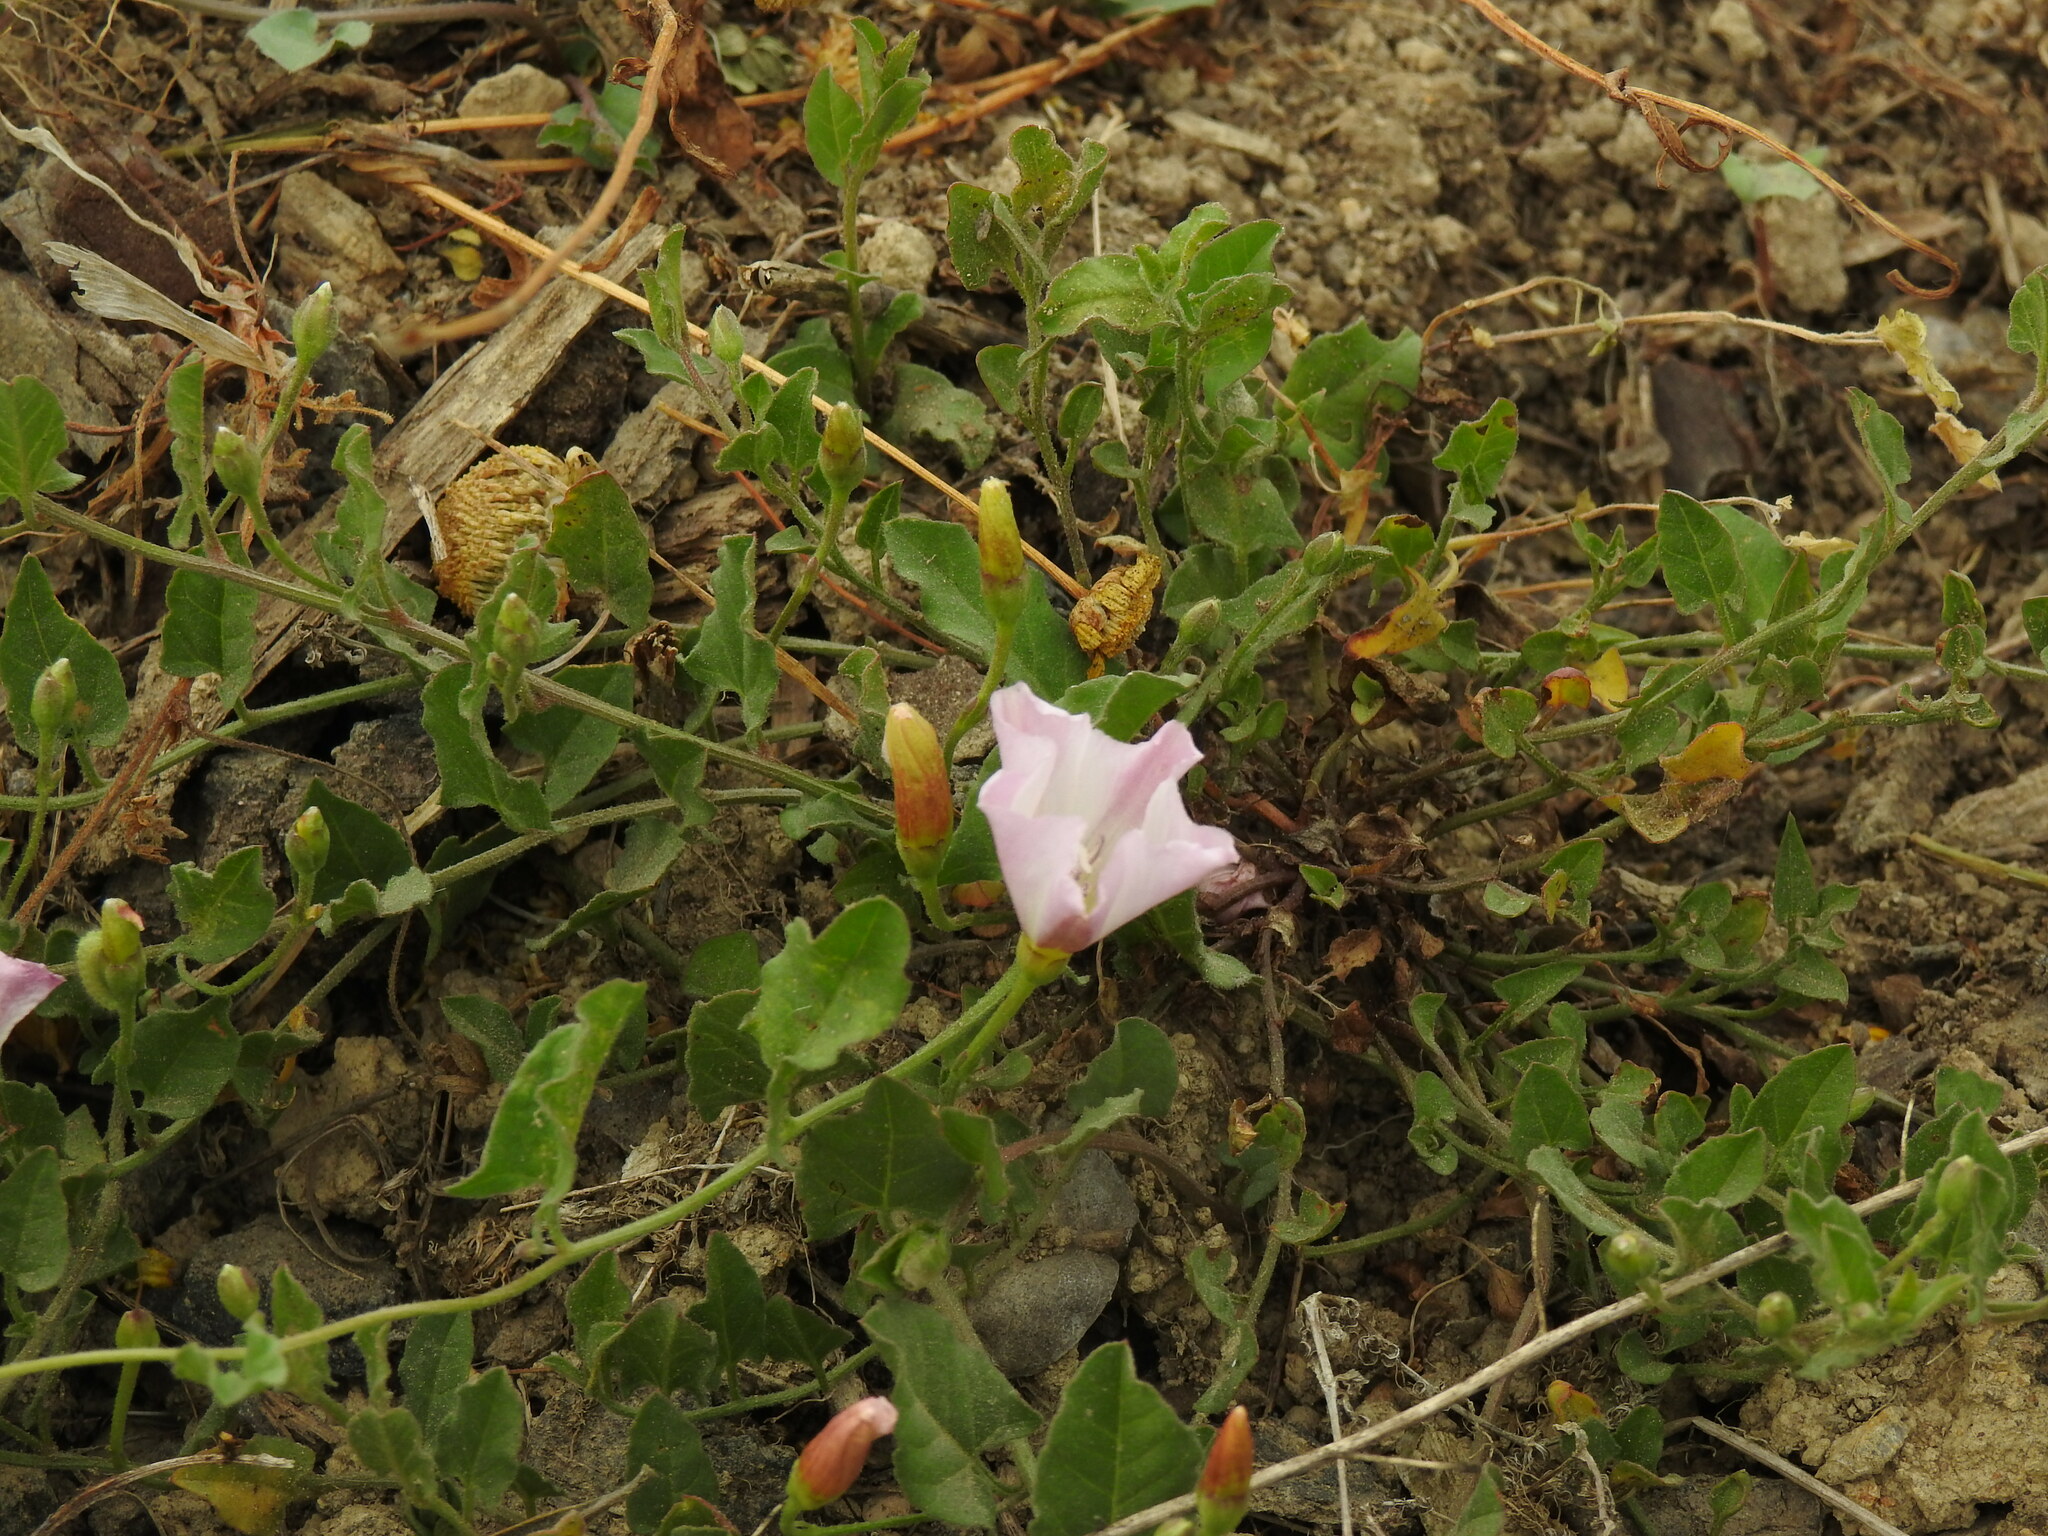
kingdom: Plantae
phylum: Tracheophyta
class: Magnoliopsida
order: Solanales
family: Convolvulaceae
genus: Convolvulus
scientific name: Convolvulus arvensis
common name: Field bindweed
